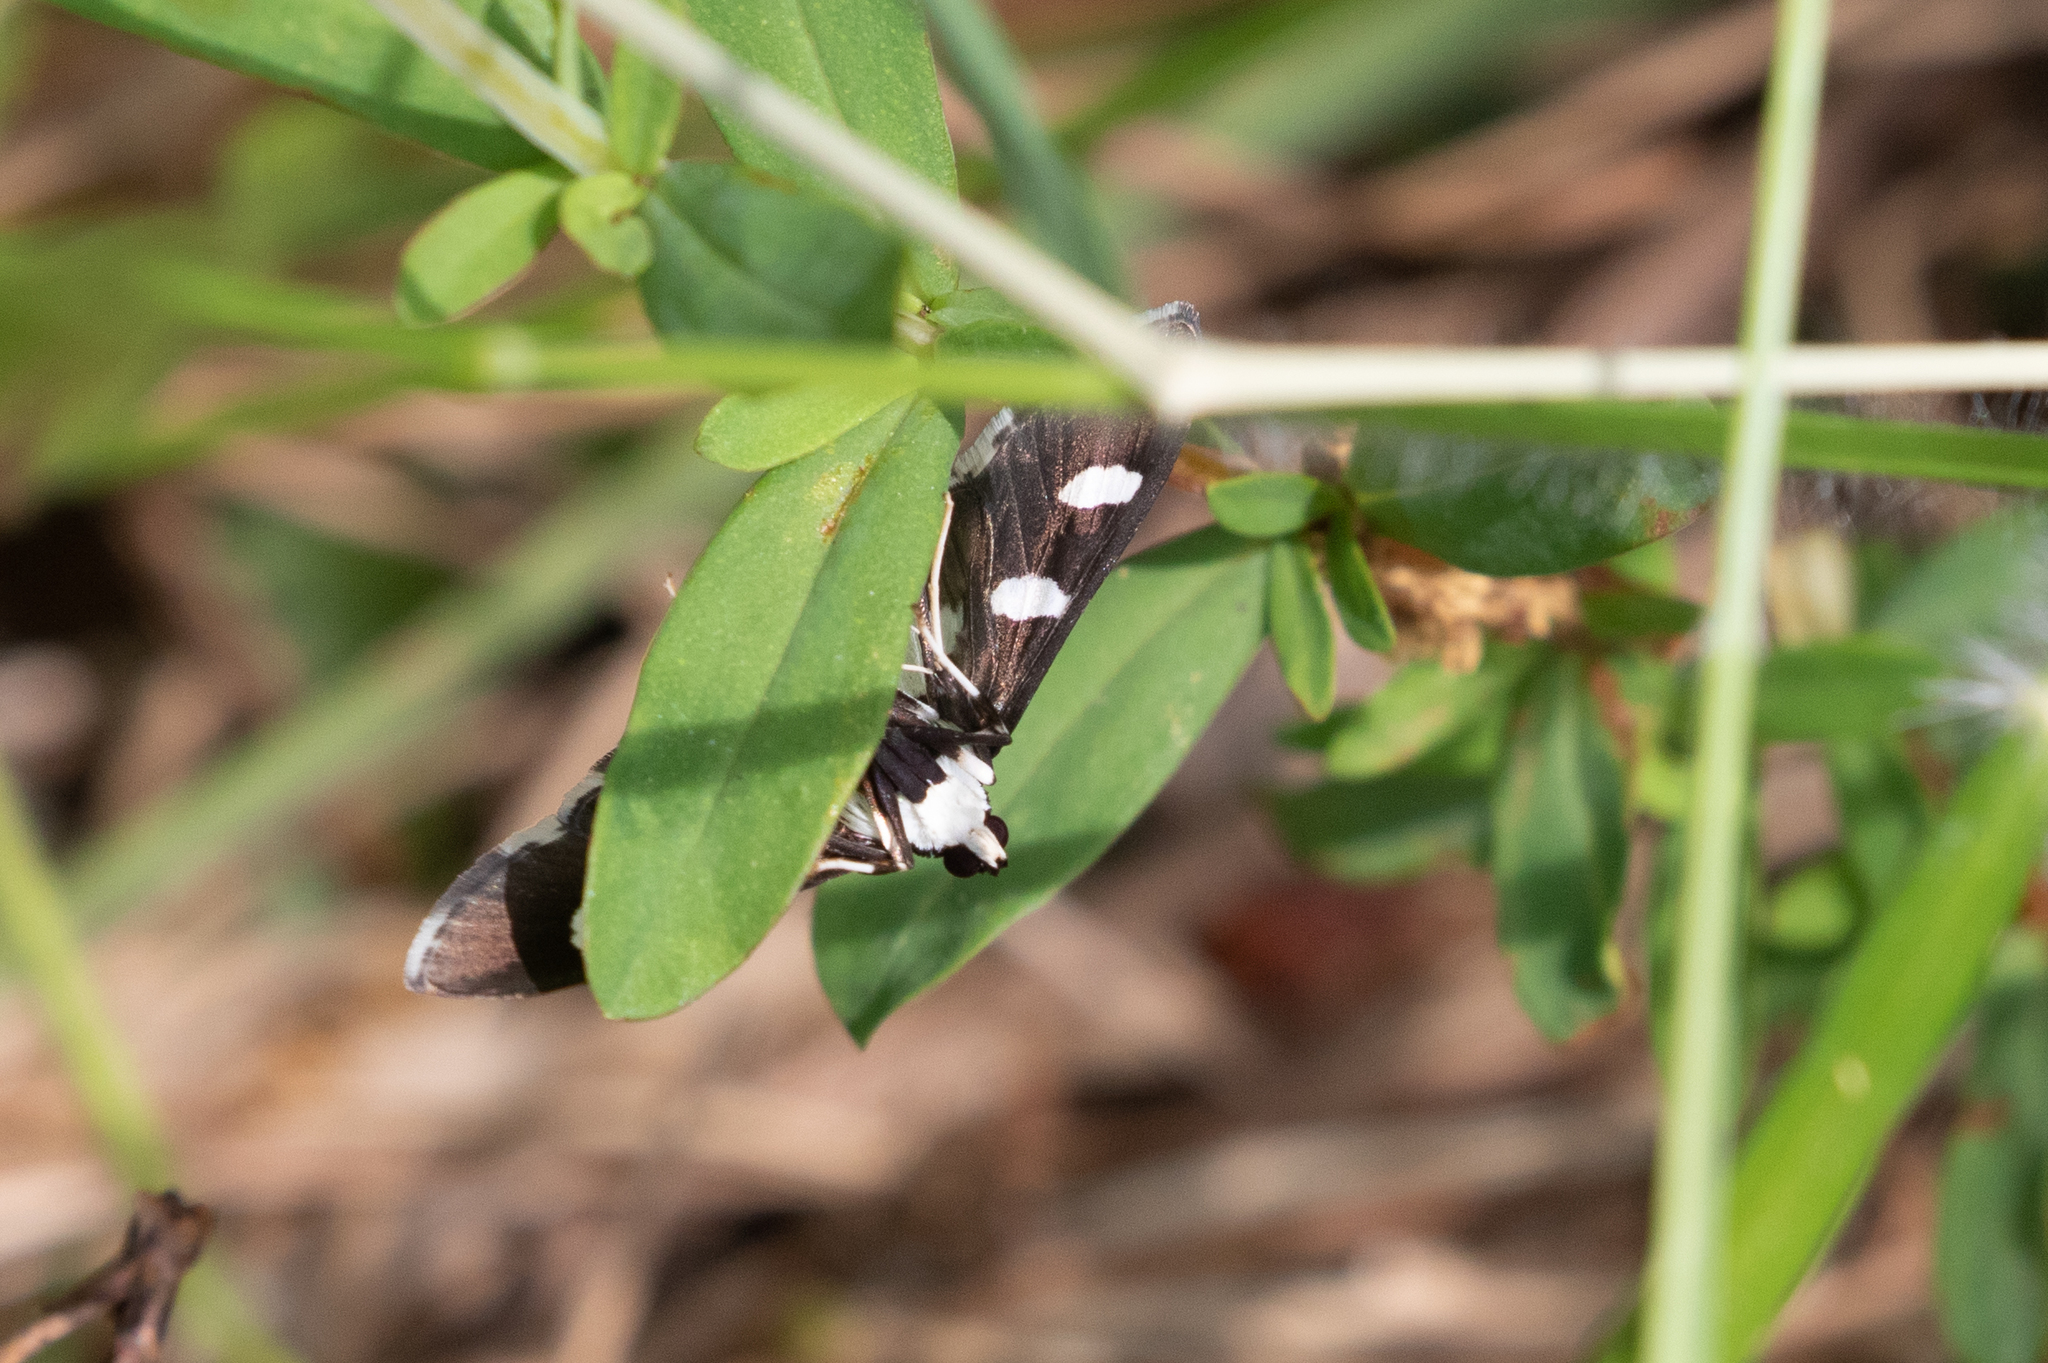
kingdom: Animalia
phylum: Arthropoda
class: Insecta
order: Lepidoptera
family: Crambidae
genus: Desmia
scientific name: Desmia
